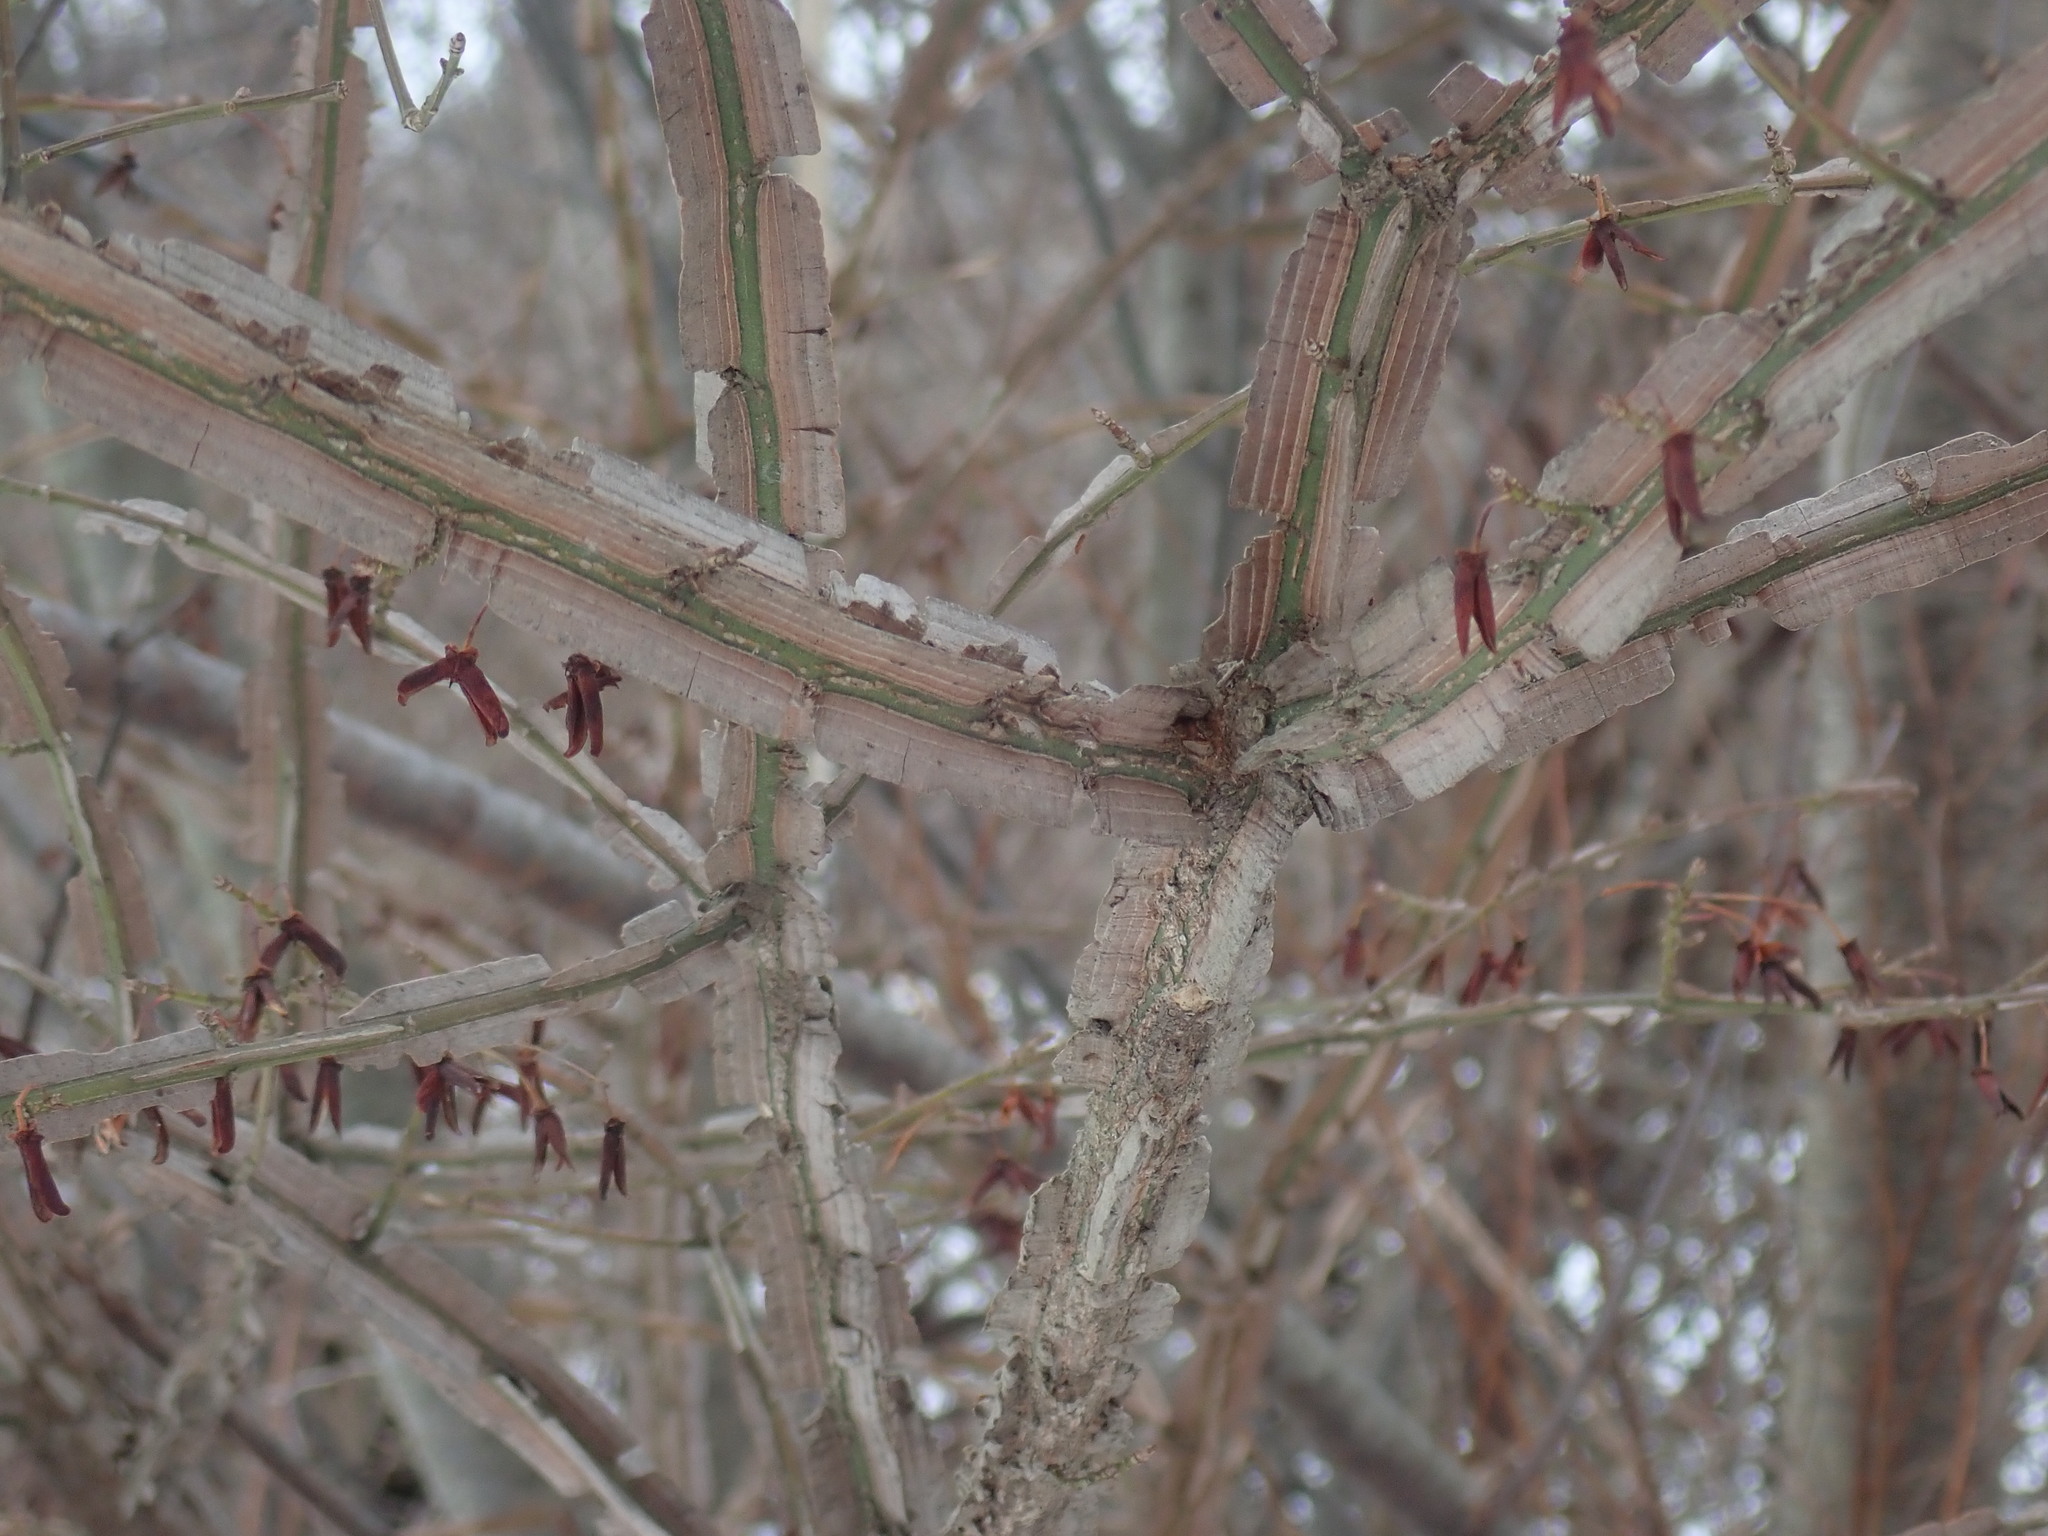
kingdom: Plantae
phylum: Tracheophyta
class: Magnoliopsida
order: Celastrales
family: Celastraceae
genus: Euonymus
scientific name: Euonymus alatus
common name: Winged euonymus
